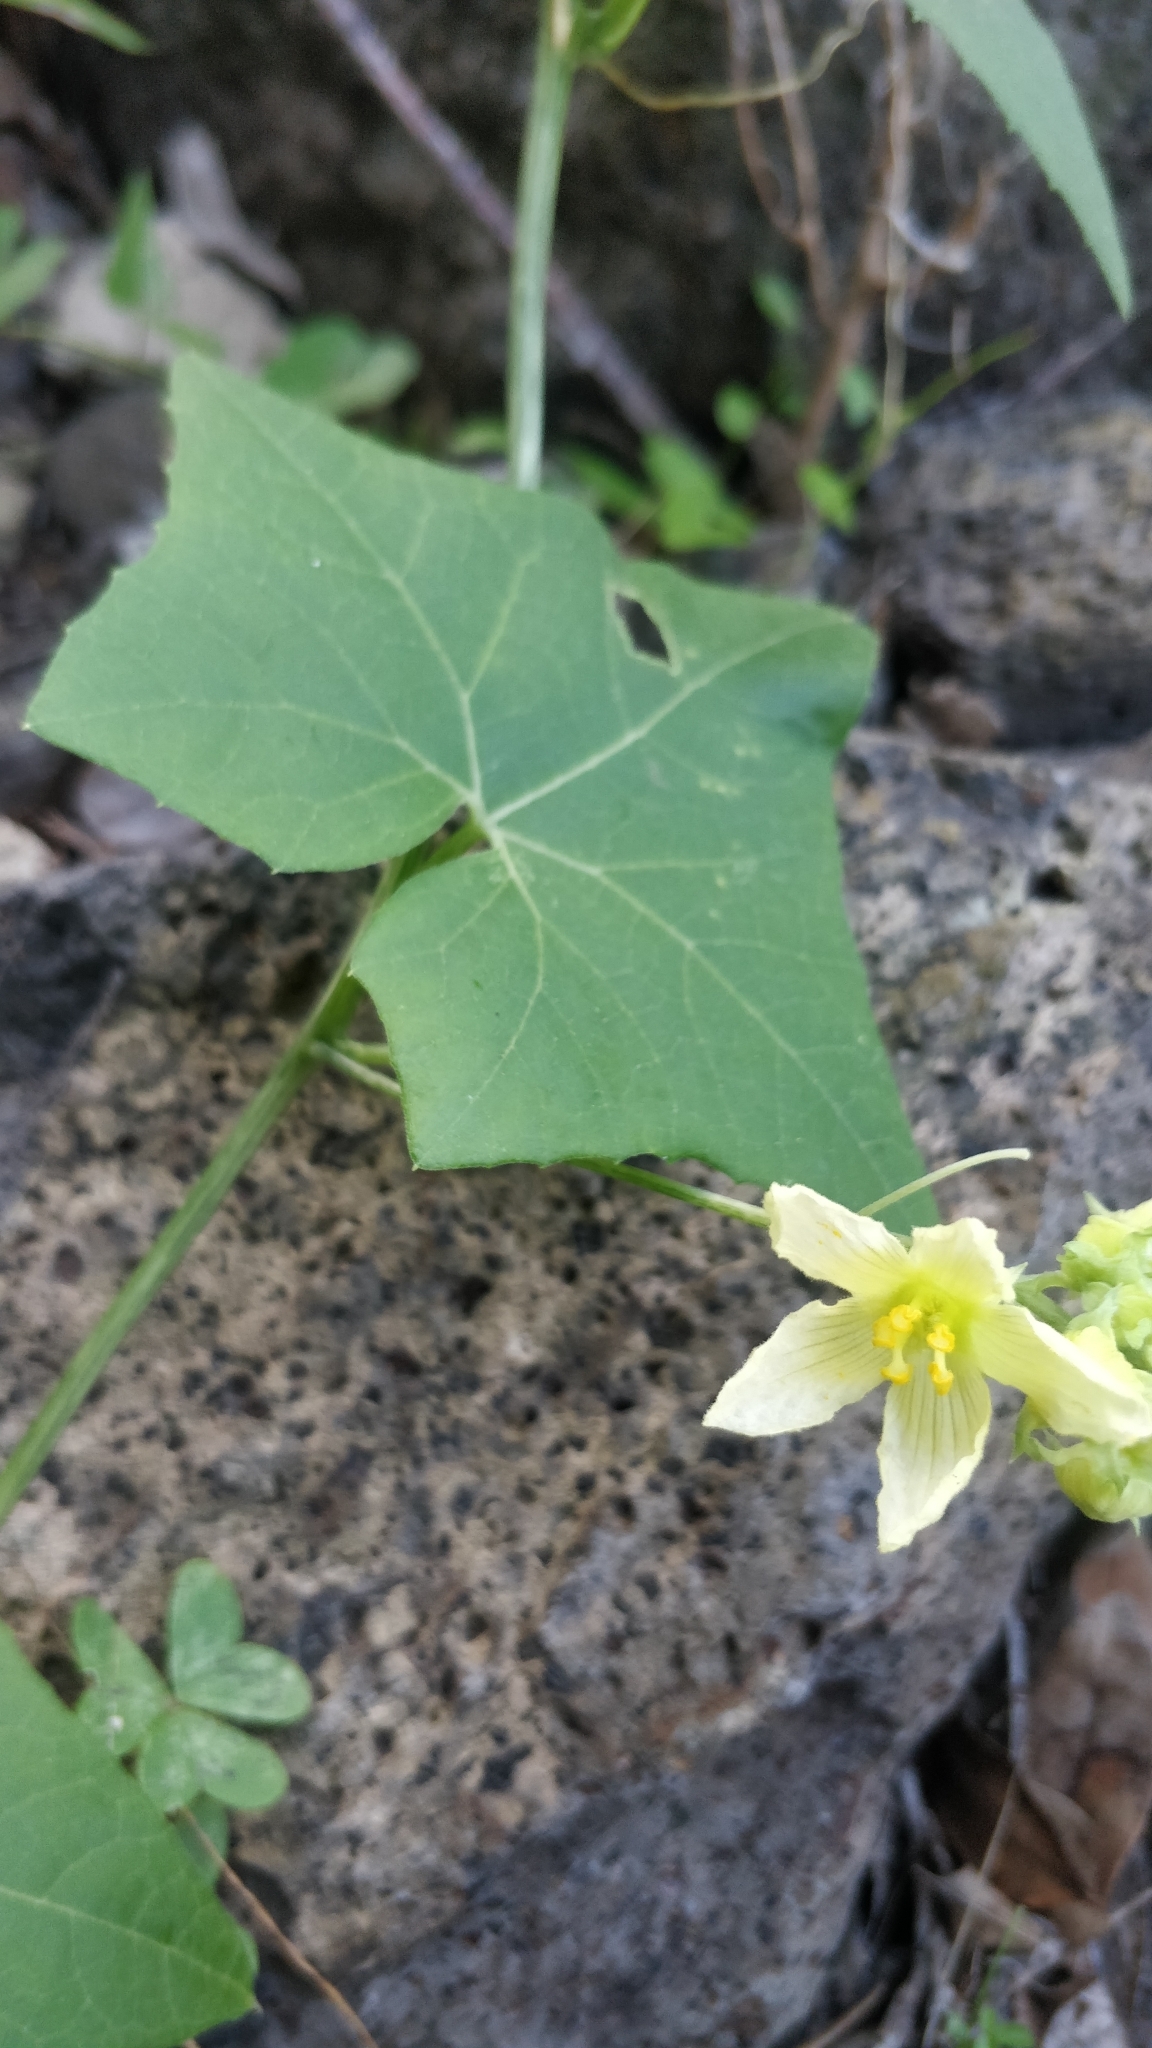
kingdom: Plantae
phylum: Tracheophyta
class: Magnoliopsida
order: Cucurbitales
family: Cucurbitaceae
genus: Bryonia
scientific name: Bryonia verrucosa
